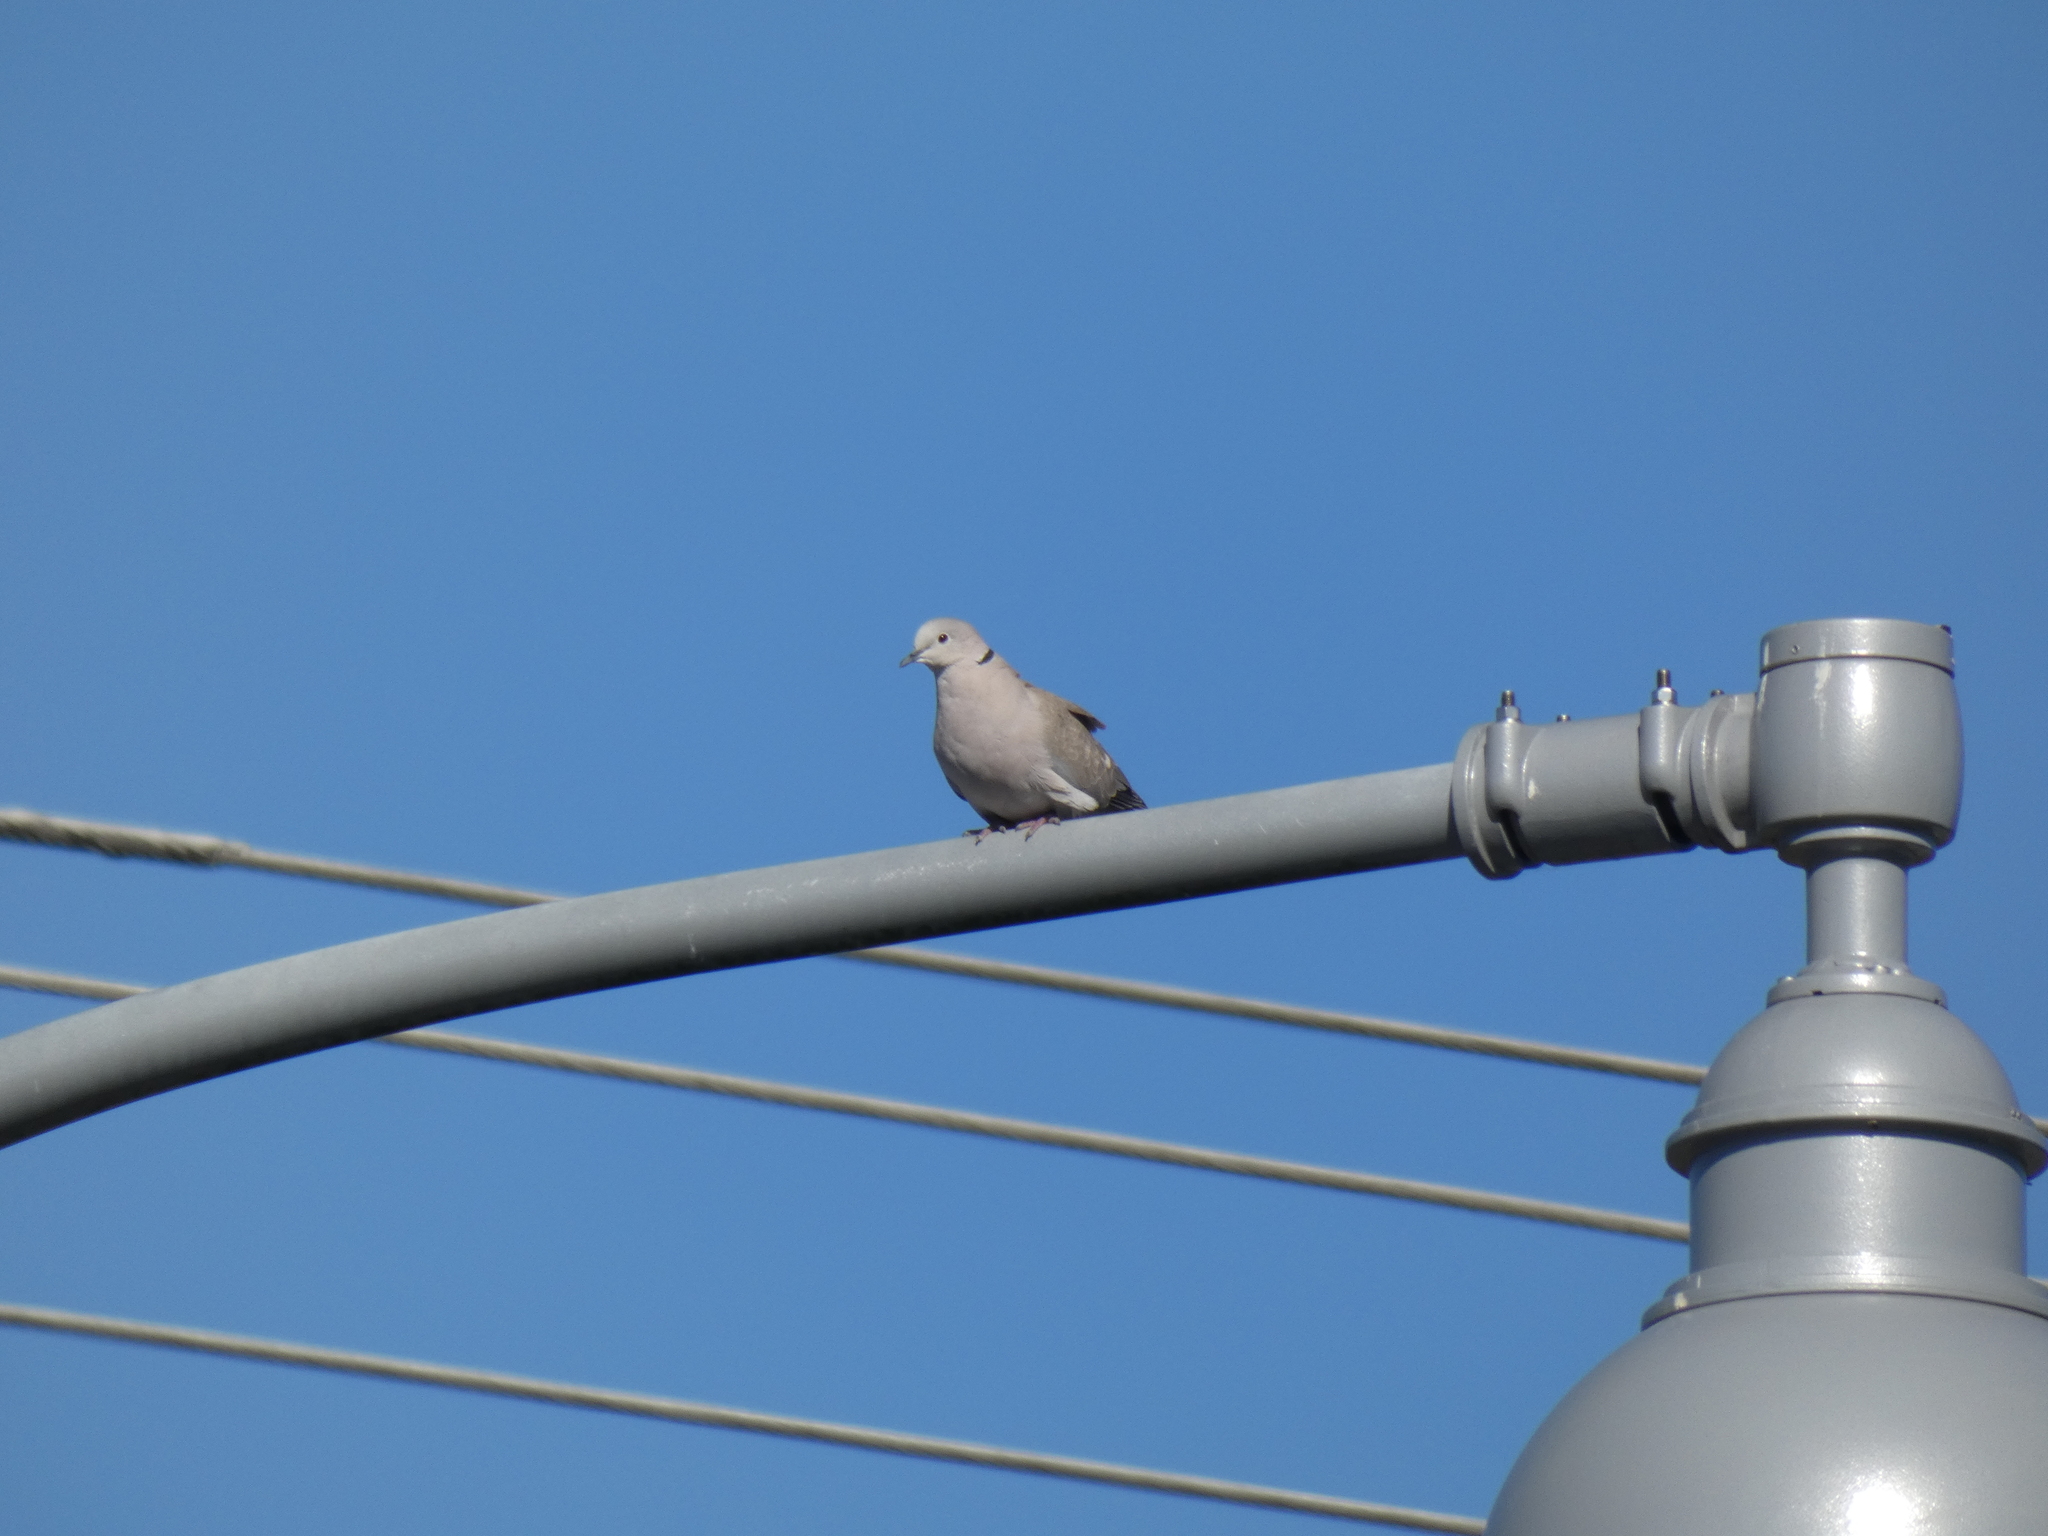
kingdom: Animalia
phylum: Chordata
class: Aves
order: Columbiformes
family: Columbidae
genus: Streptopelia
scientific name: Streptopelia decaocto
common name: Eurasian collared dove
